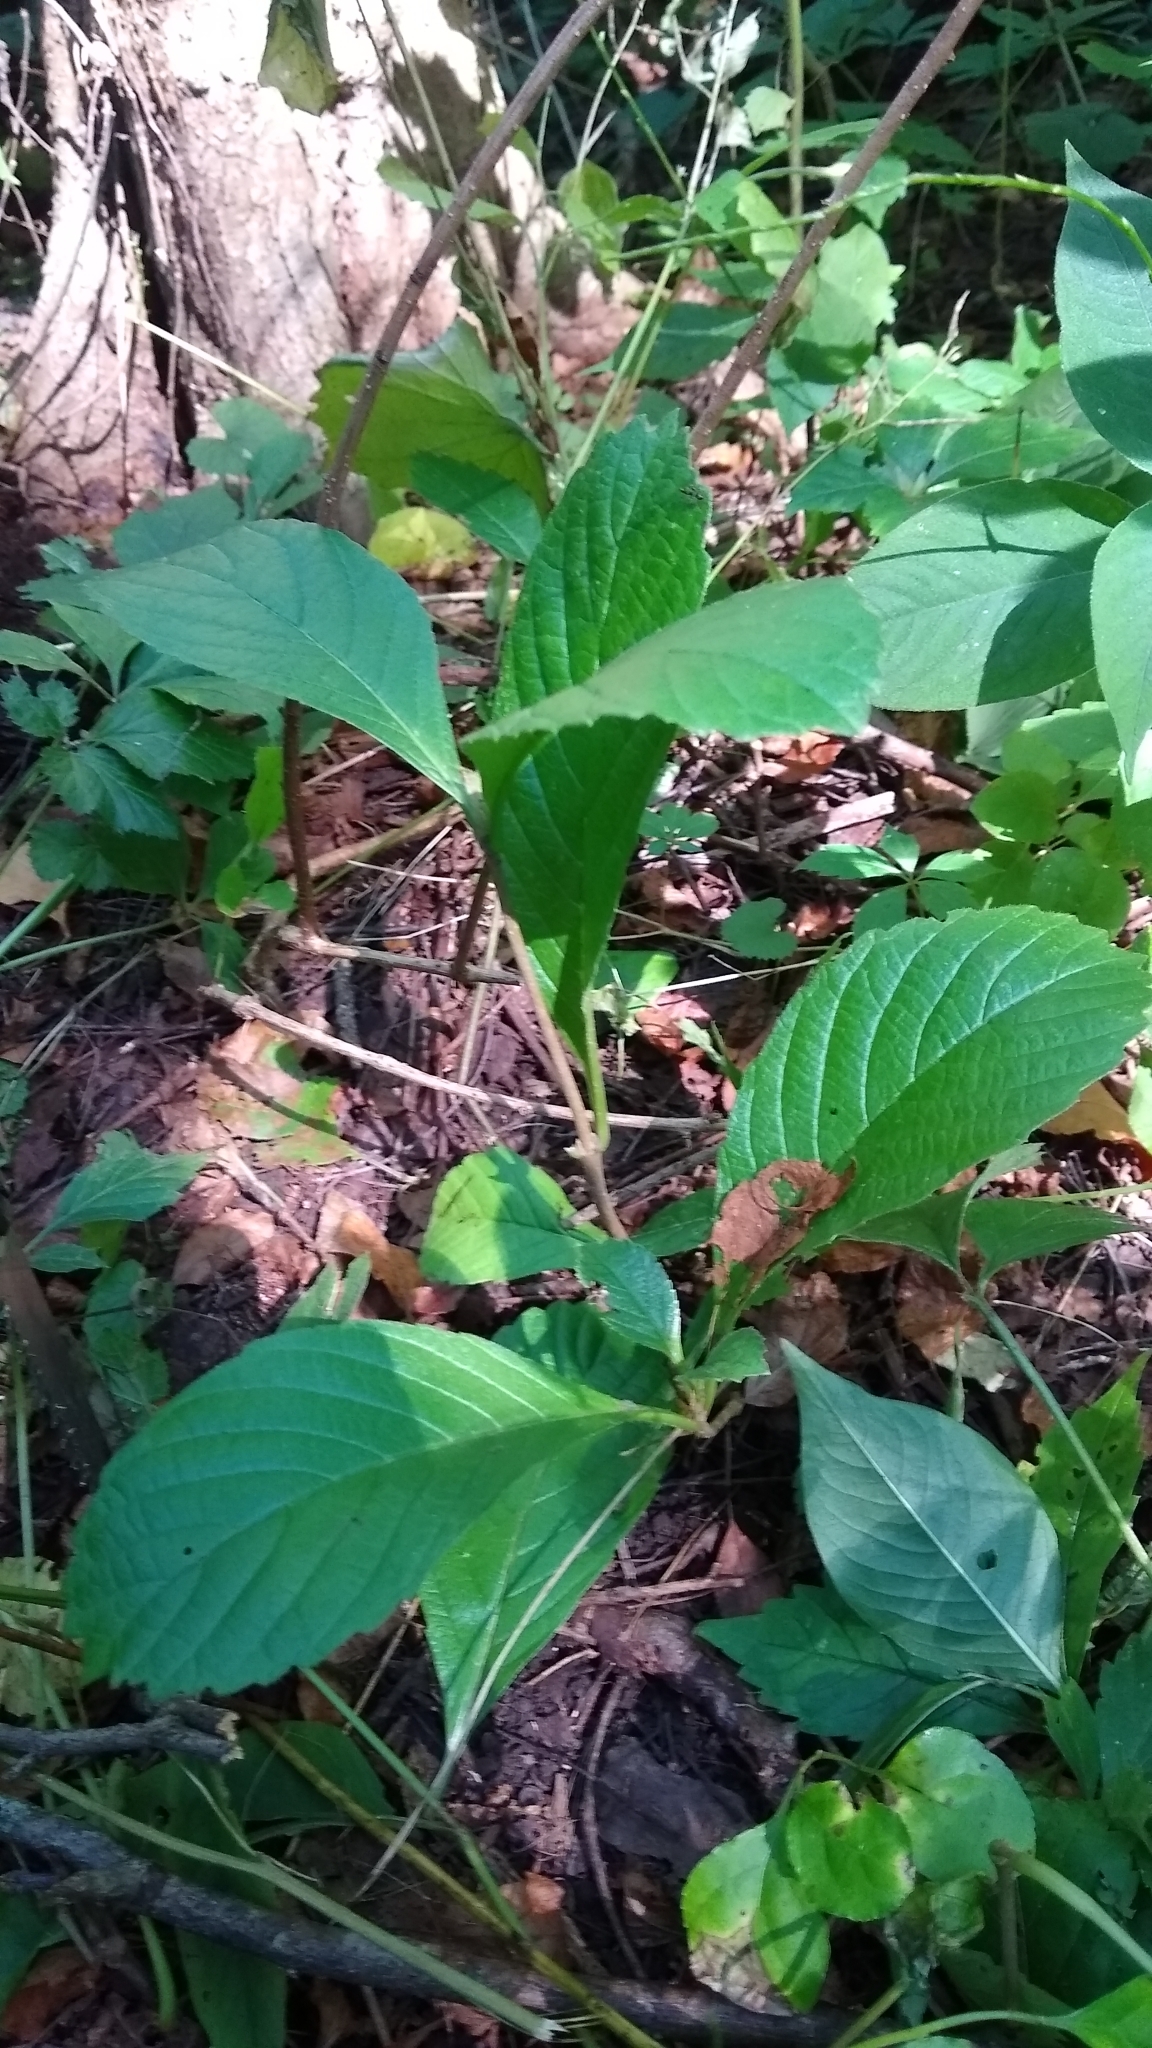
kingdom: Plantae
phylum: Tracheophyta
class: Magnoliopsida
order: Dipsacales
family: Viburnaceae
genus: Viburnum
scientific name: Viburnum sieboldii
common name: Siebold's arrowwood
